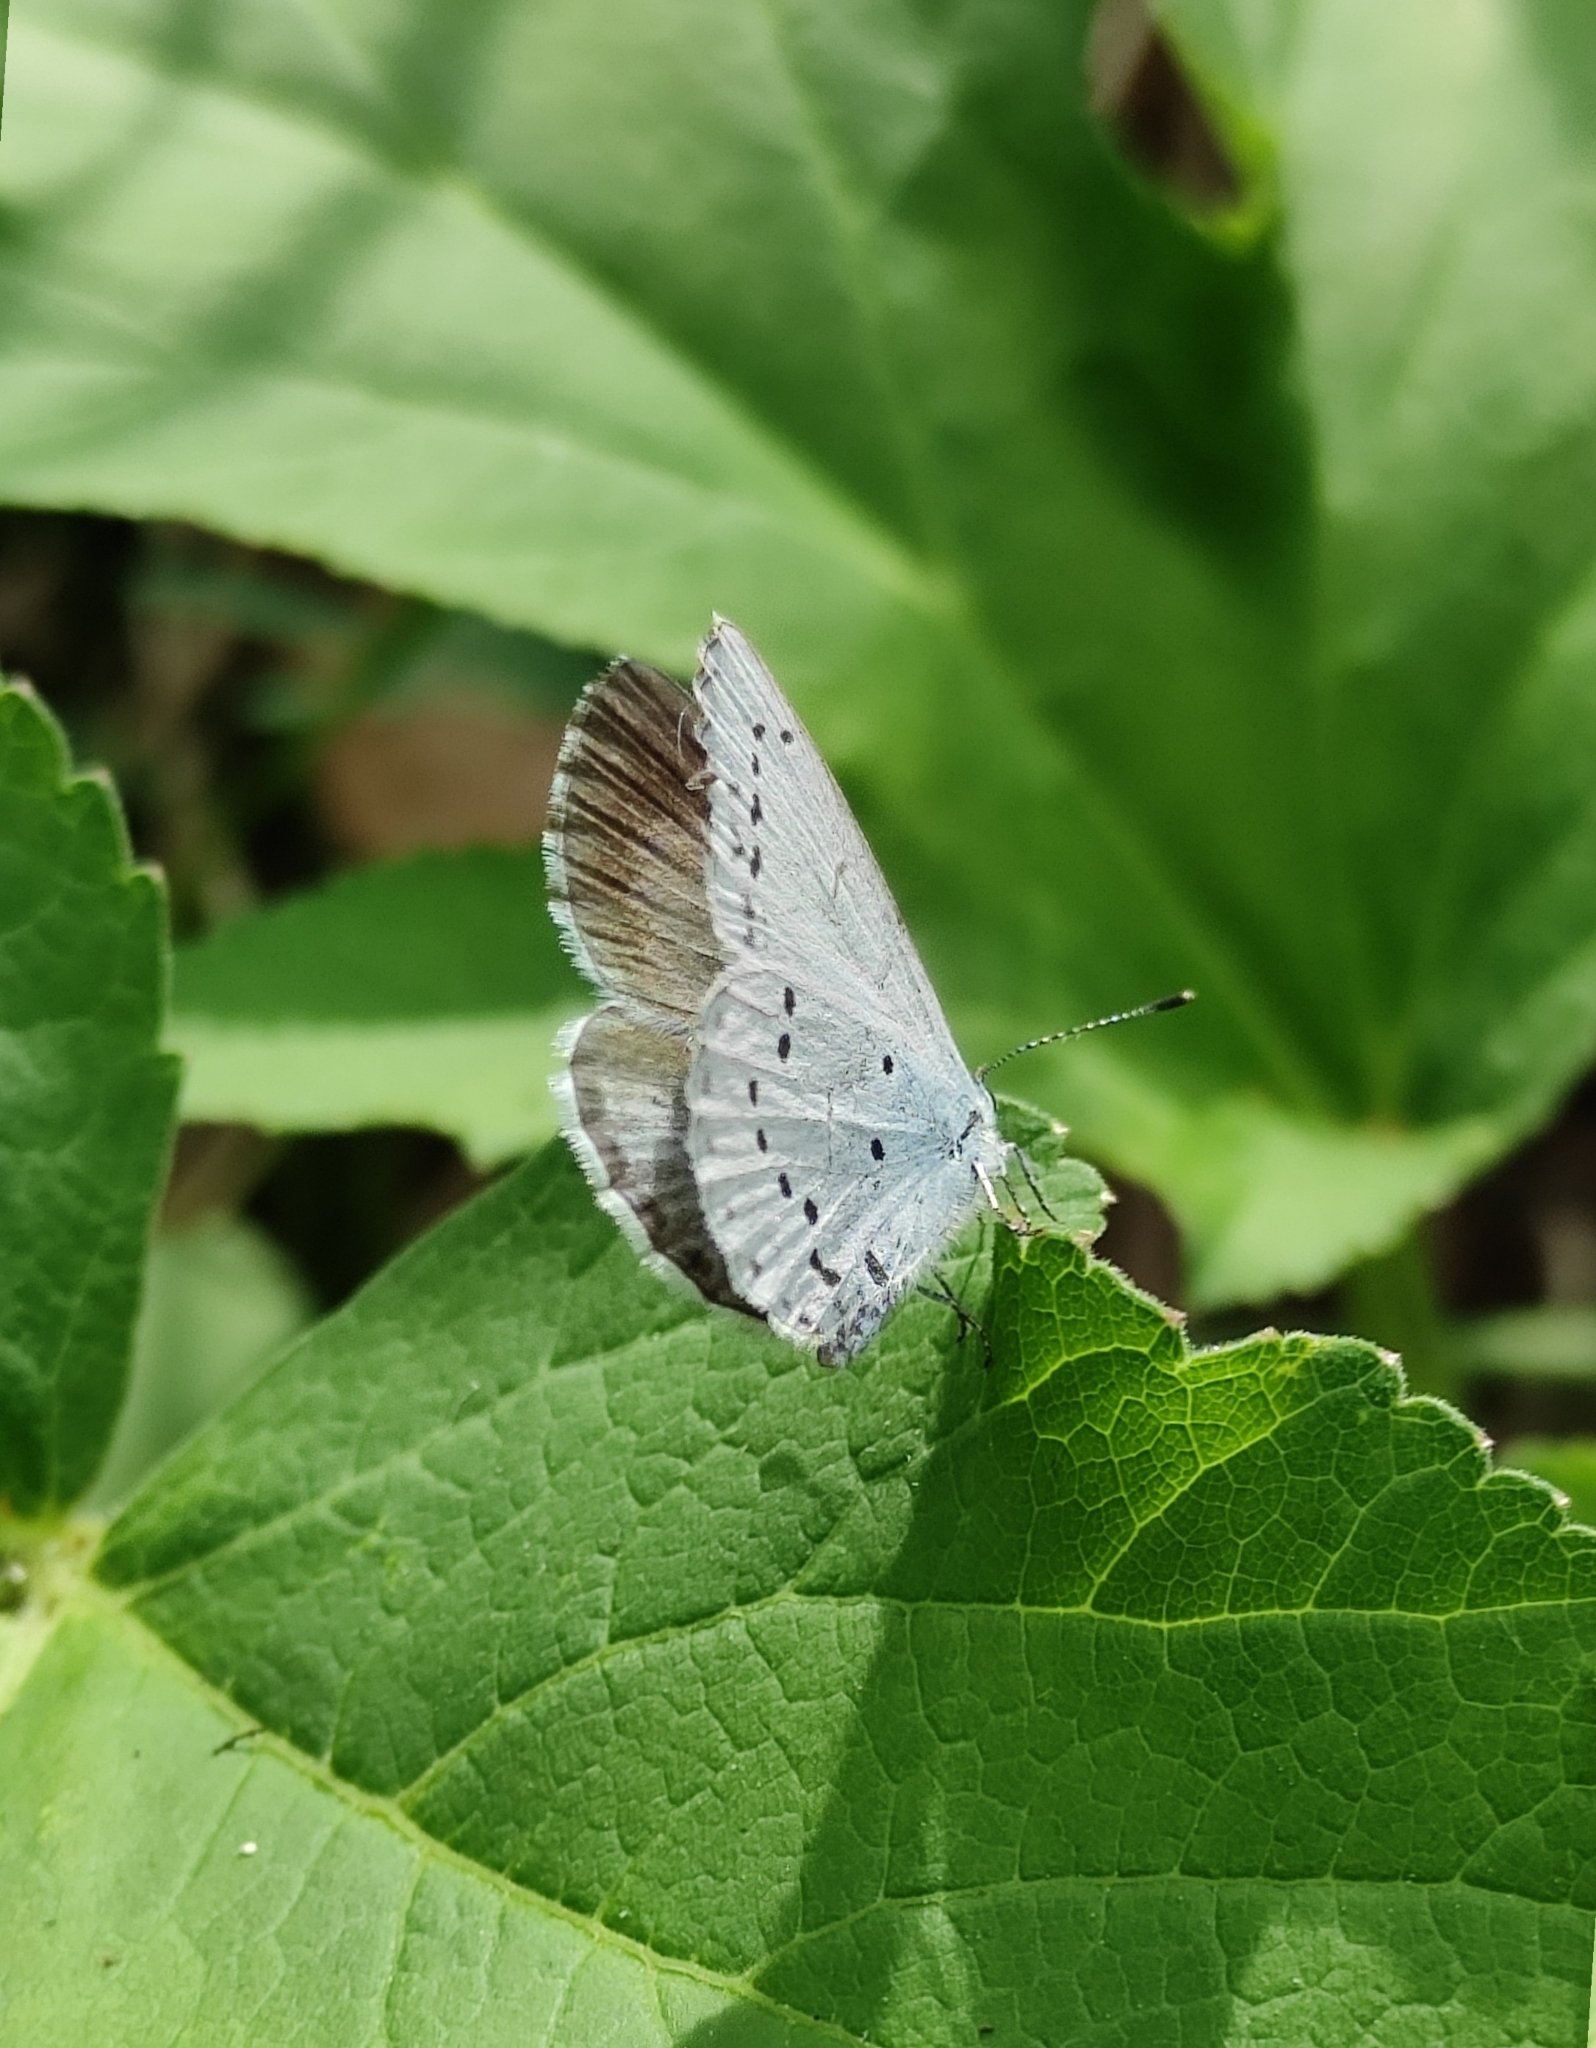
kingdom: Animalia
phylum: Arthropoda
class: Insecta
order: Lepidoptera
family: Lycaenidae
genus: Celastrina
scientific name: Celastrina argiolus
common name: Holly blue
